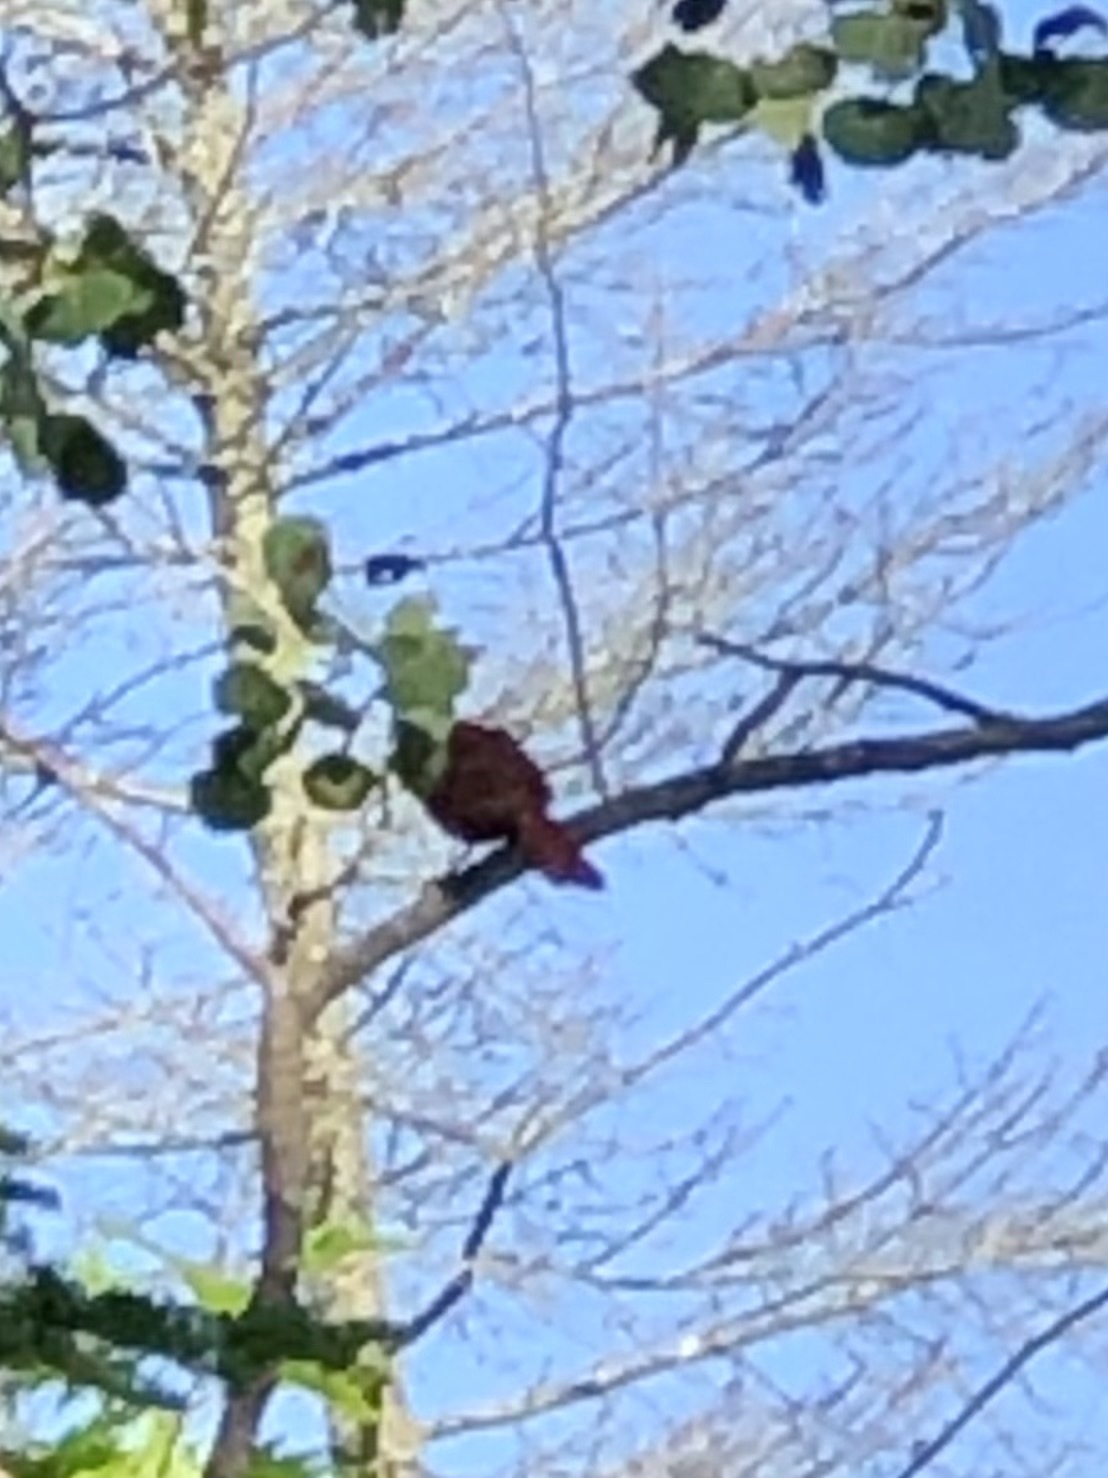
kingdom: Animalia
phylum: Chordata
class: Aves
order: Passeriformes
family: Cardinalidae
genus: Cardinalis
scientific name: Cardinalis cardinalis
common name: Northern cardinal
